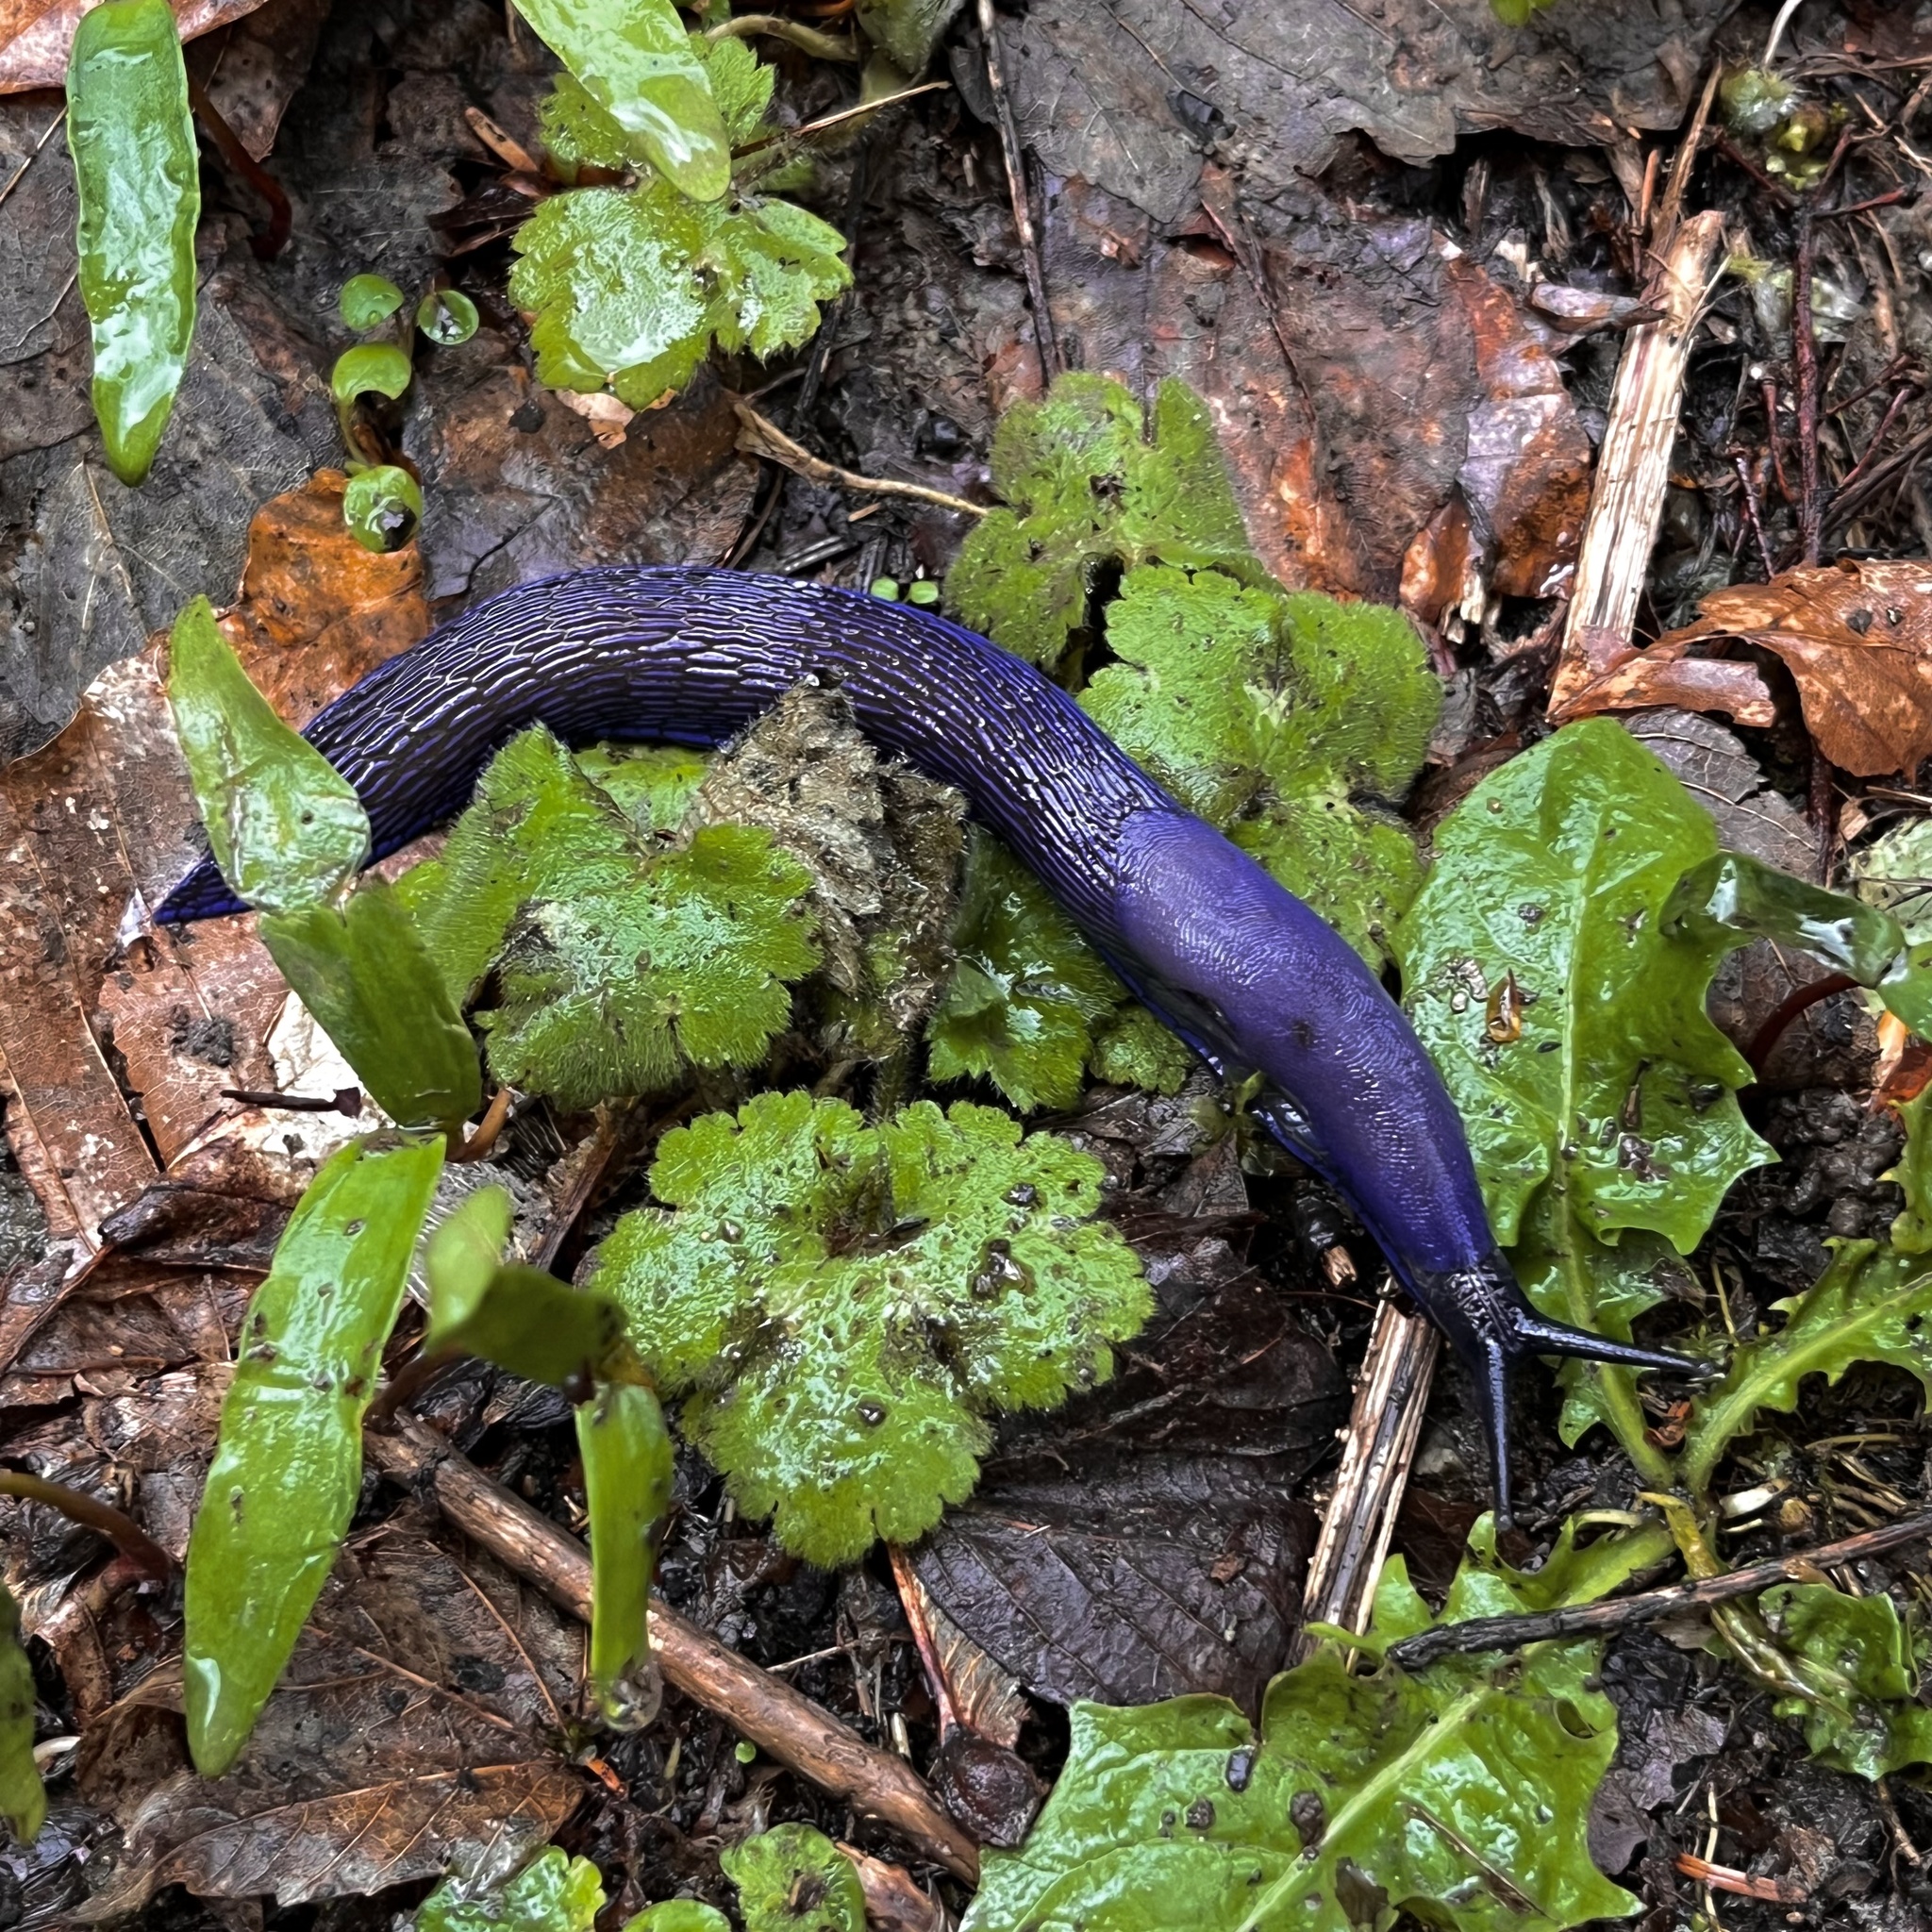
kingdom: Animalia
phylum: Mollusca
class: Gastropoda
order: Stylommatophora
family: Limacidae
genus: Bielzia
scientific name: Bielzia coerulans
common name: Carpathian blue slug
